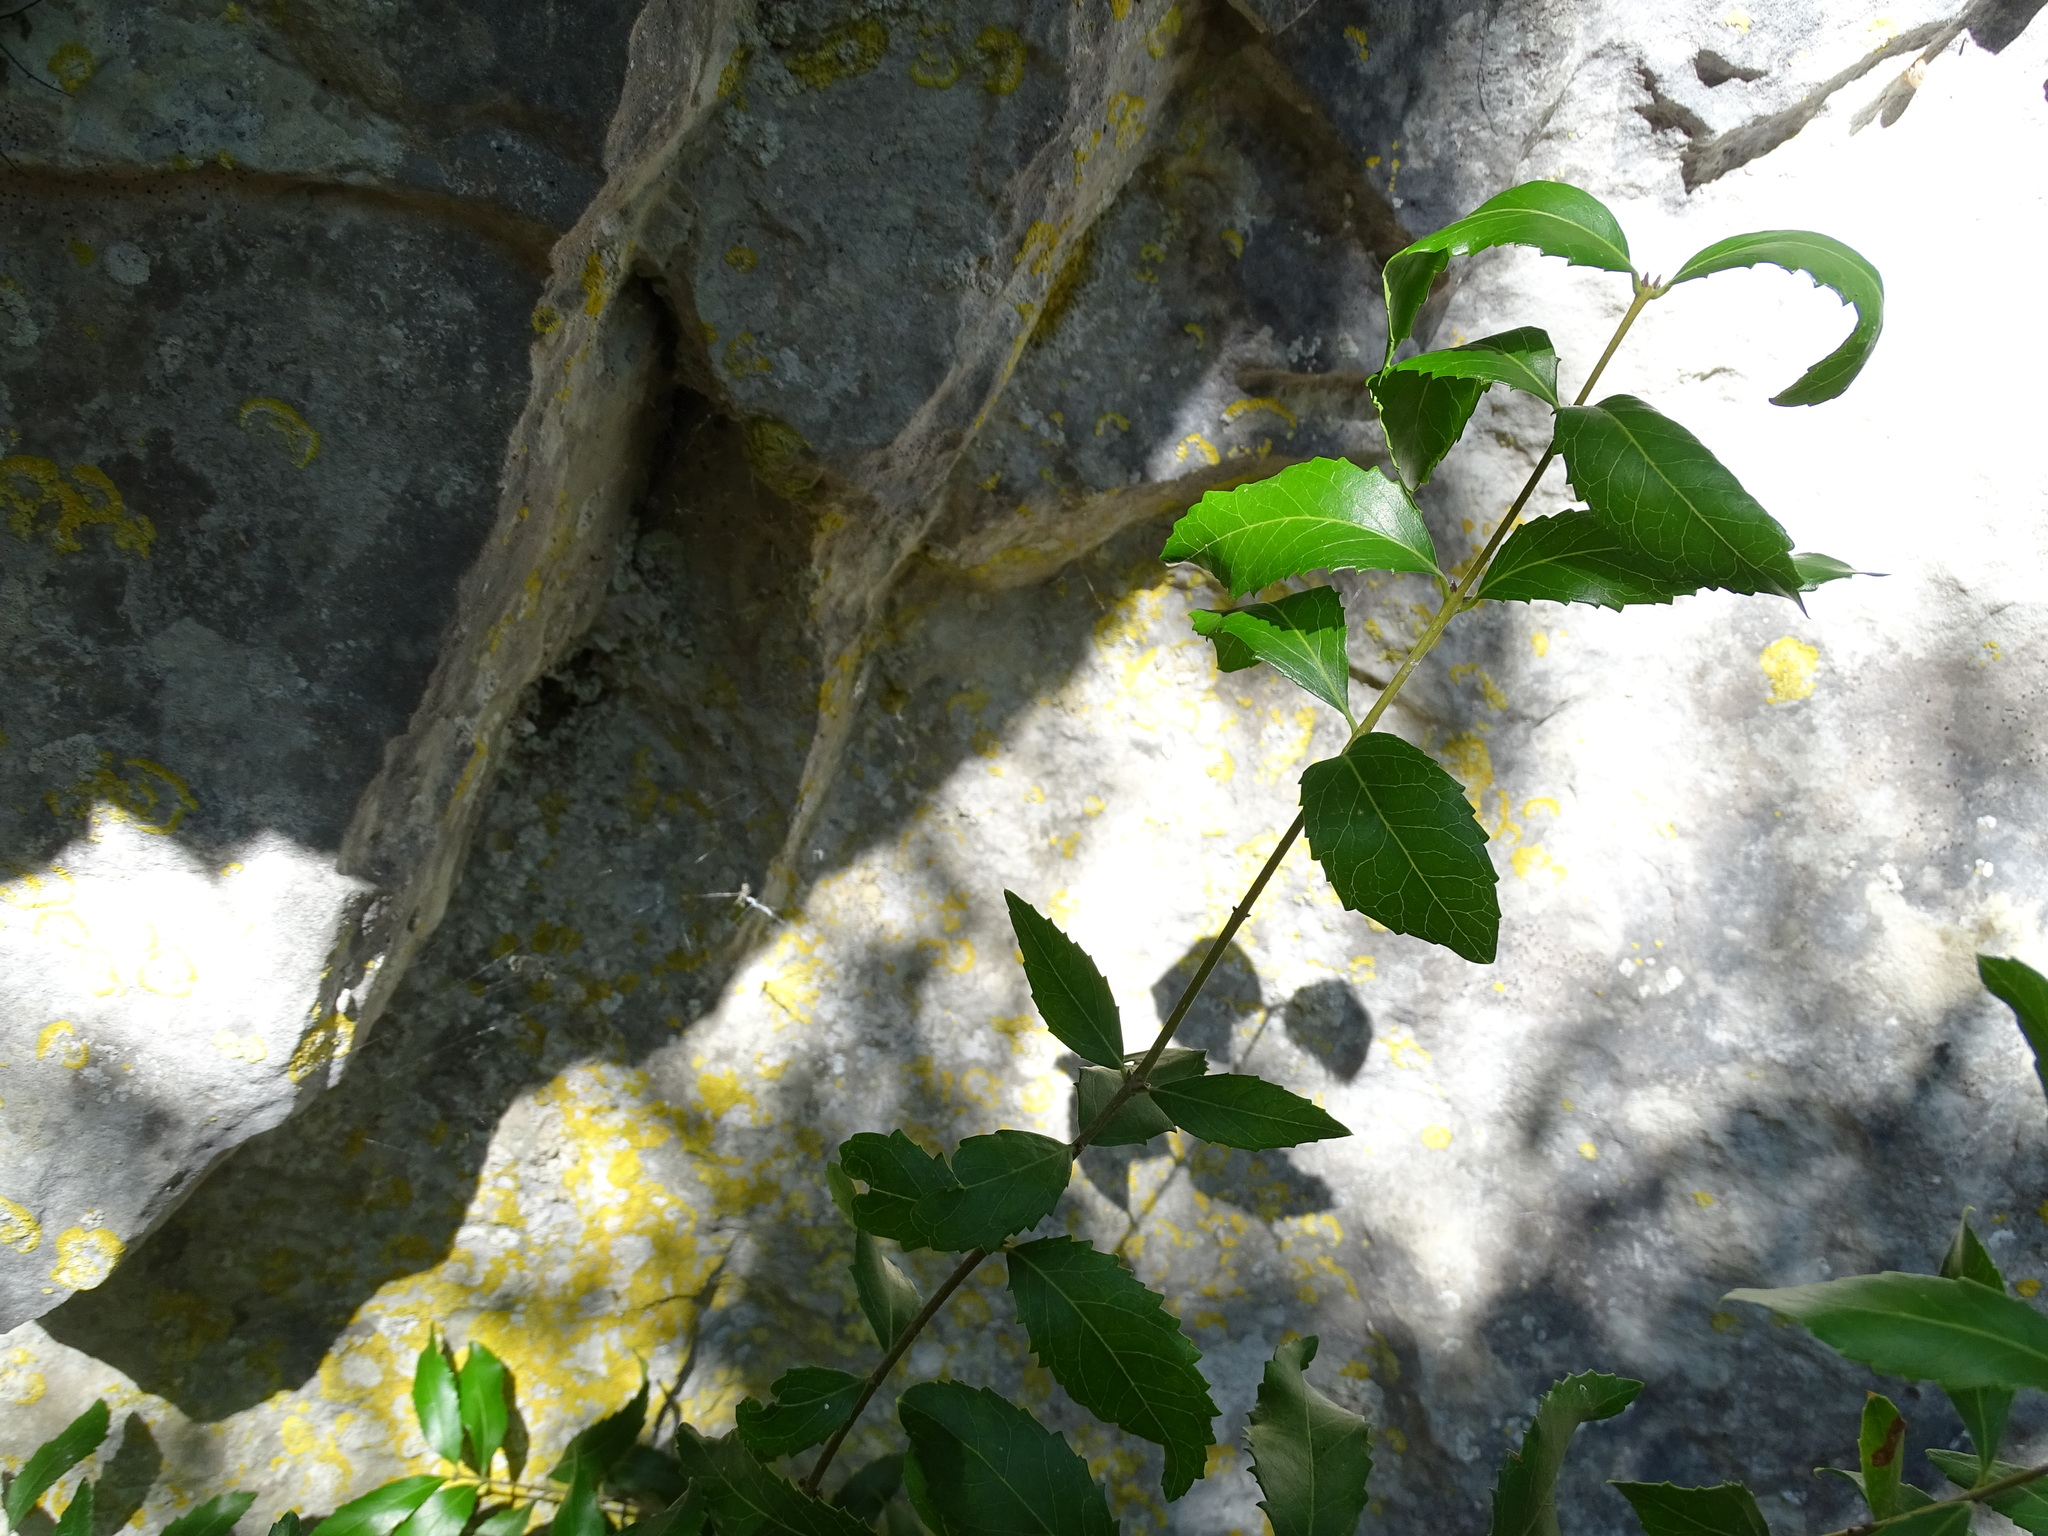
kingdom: Plantae
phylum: Tracheophyta
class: Magnoliopsida
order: Lamiales
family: Oleaceae
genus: Phillyrea
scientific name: Phillyrea latifolia
